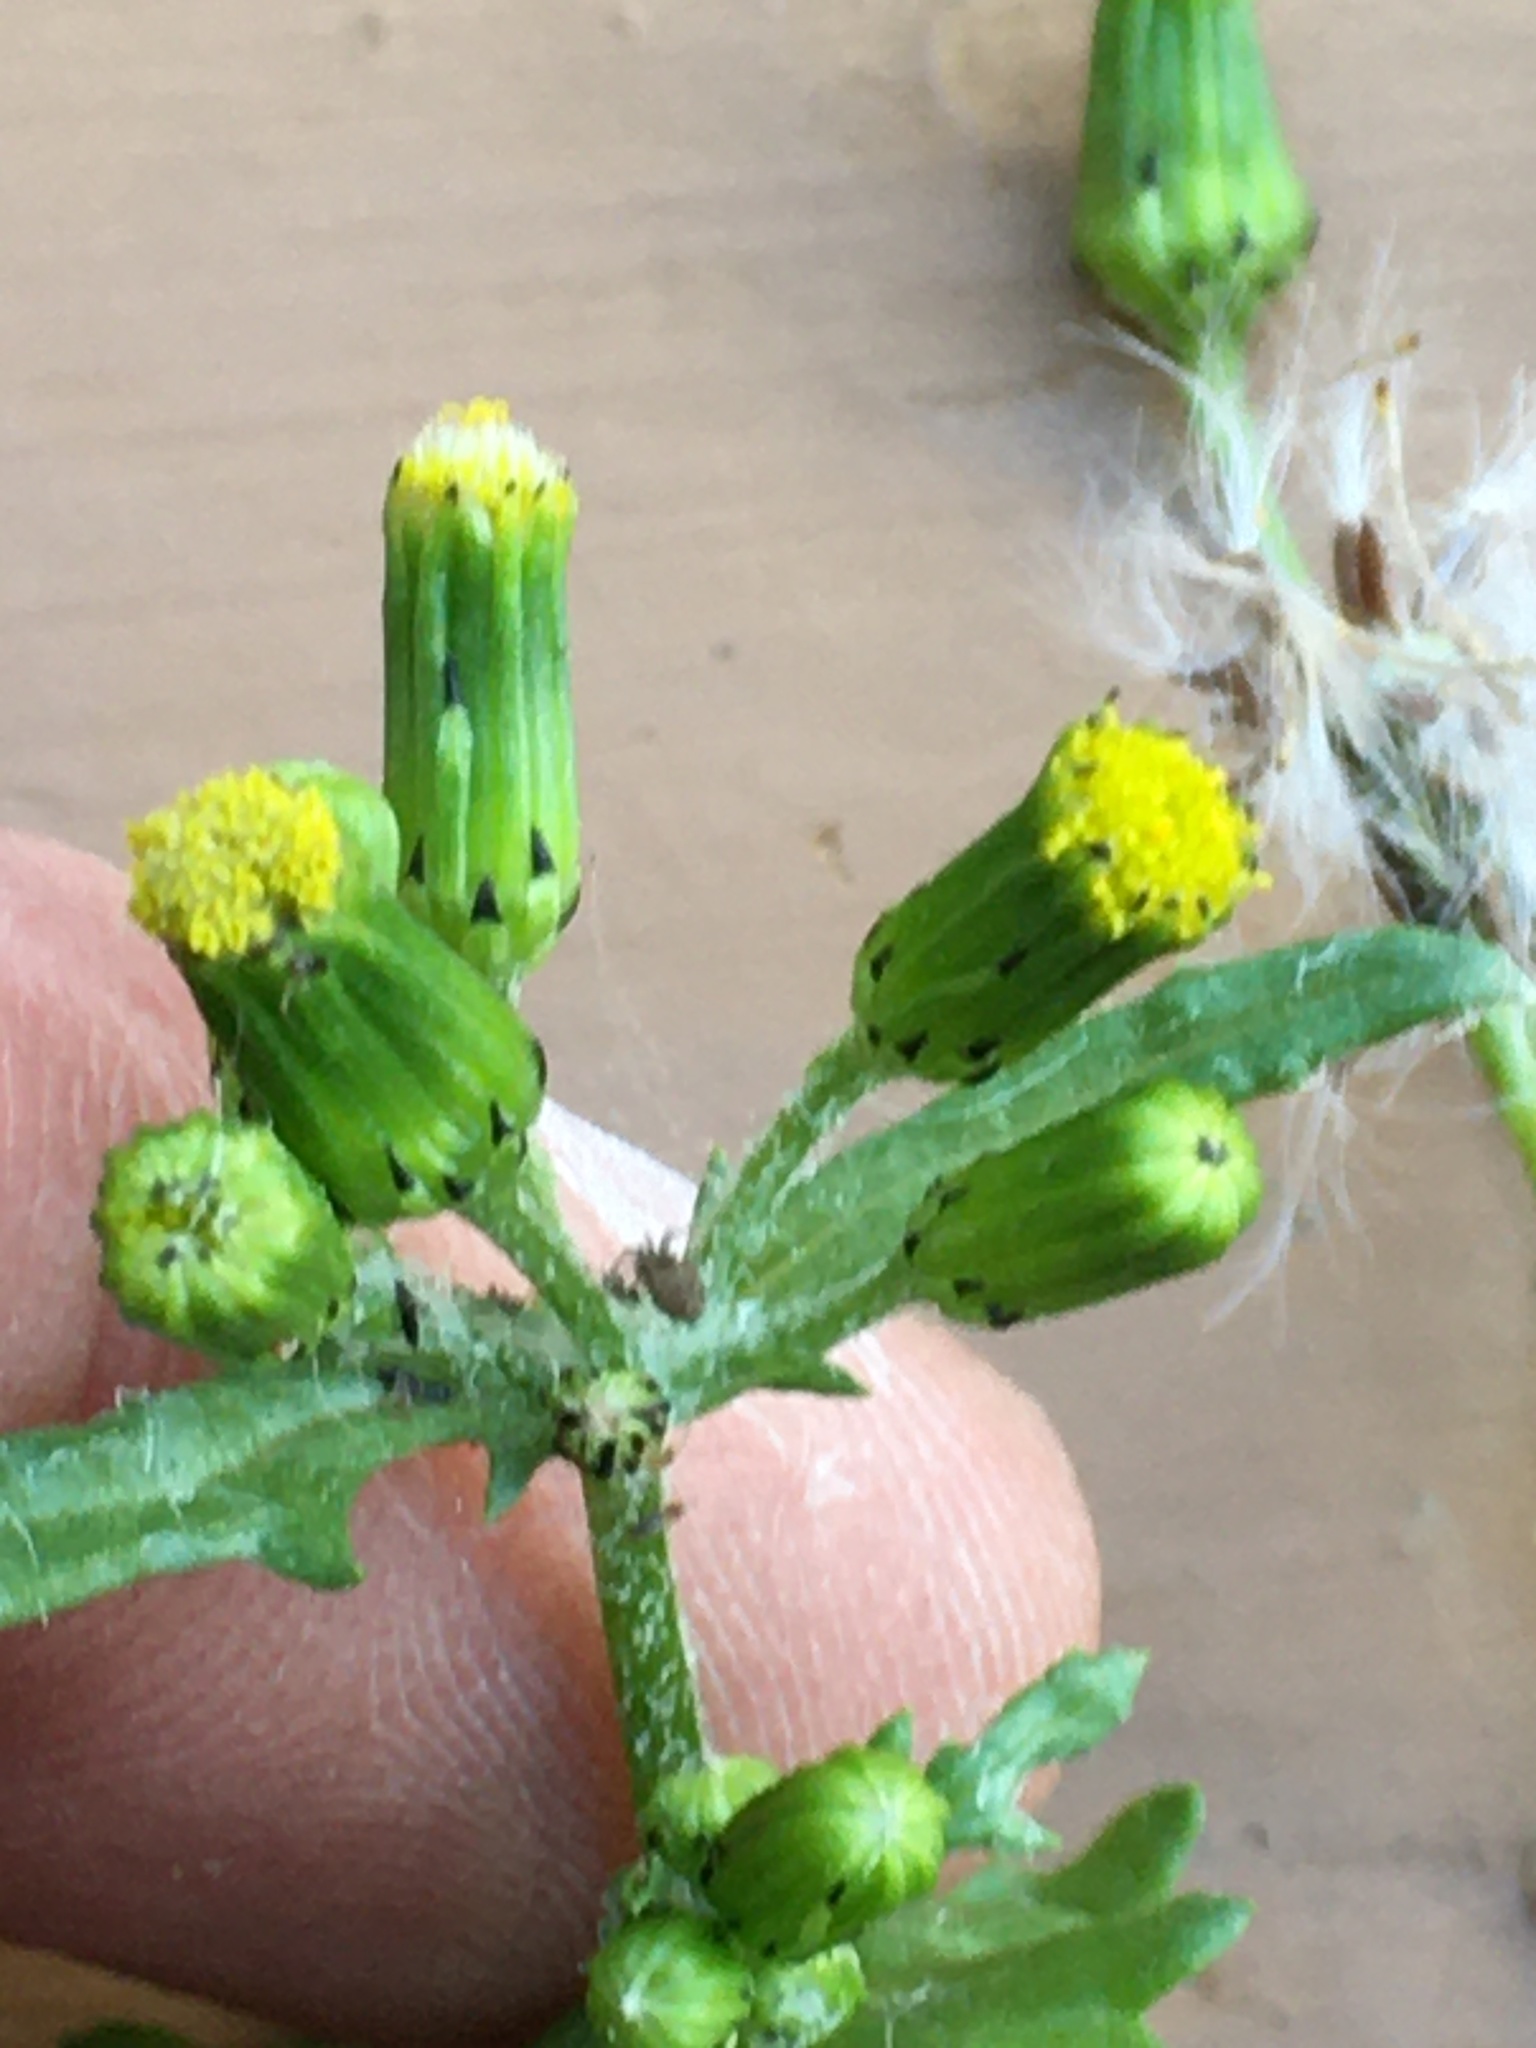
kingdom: Plantae
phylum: Tracheophyta
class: Magnoliopsida
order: Asterales
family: Asteraceae
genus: Senecio
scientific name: Senecio vulgaris
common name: Old-man-in-the-spring
